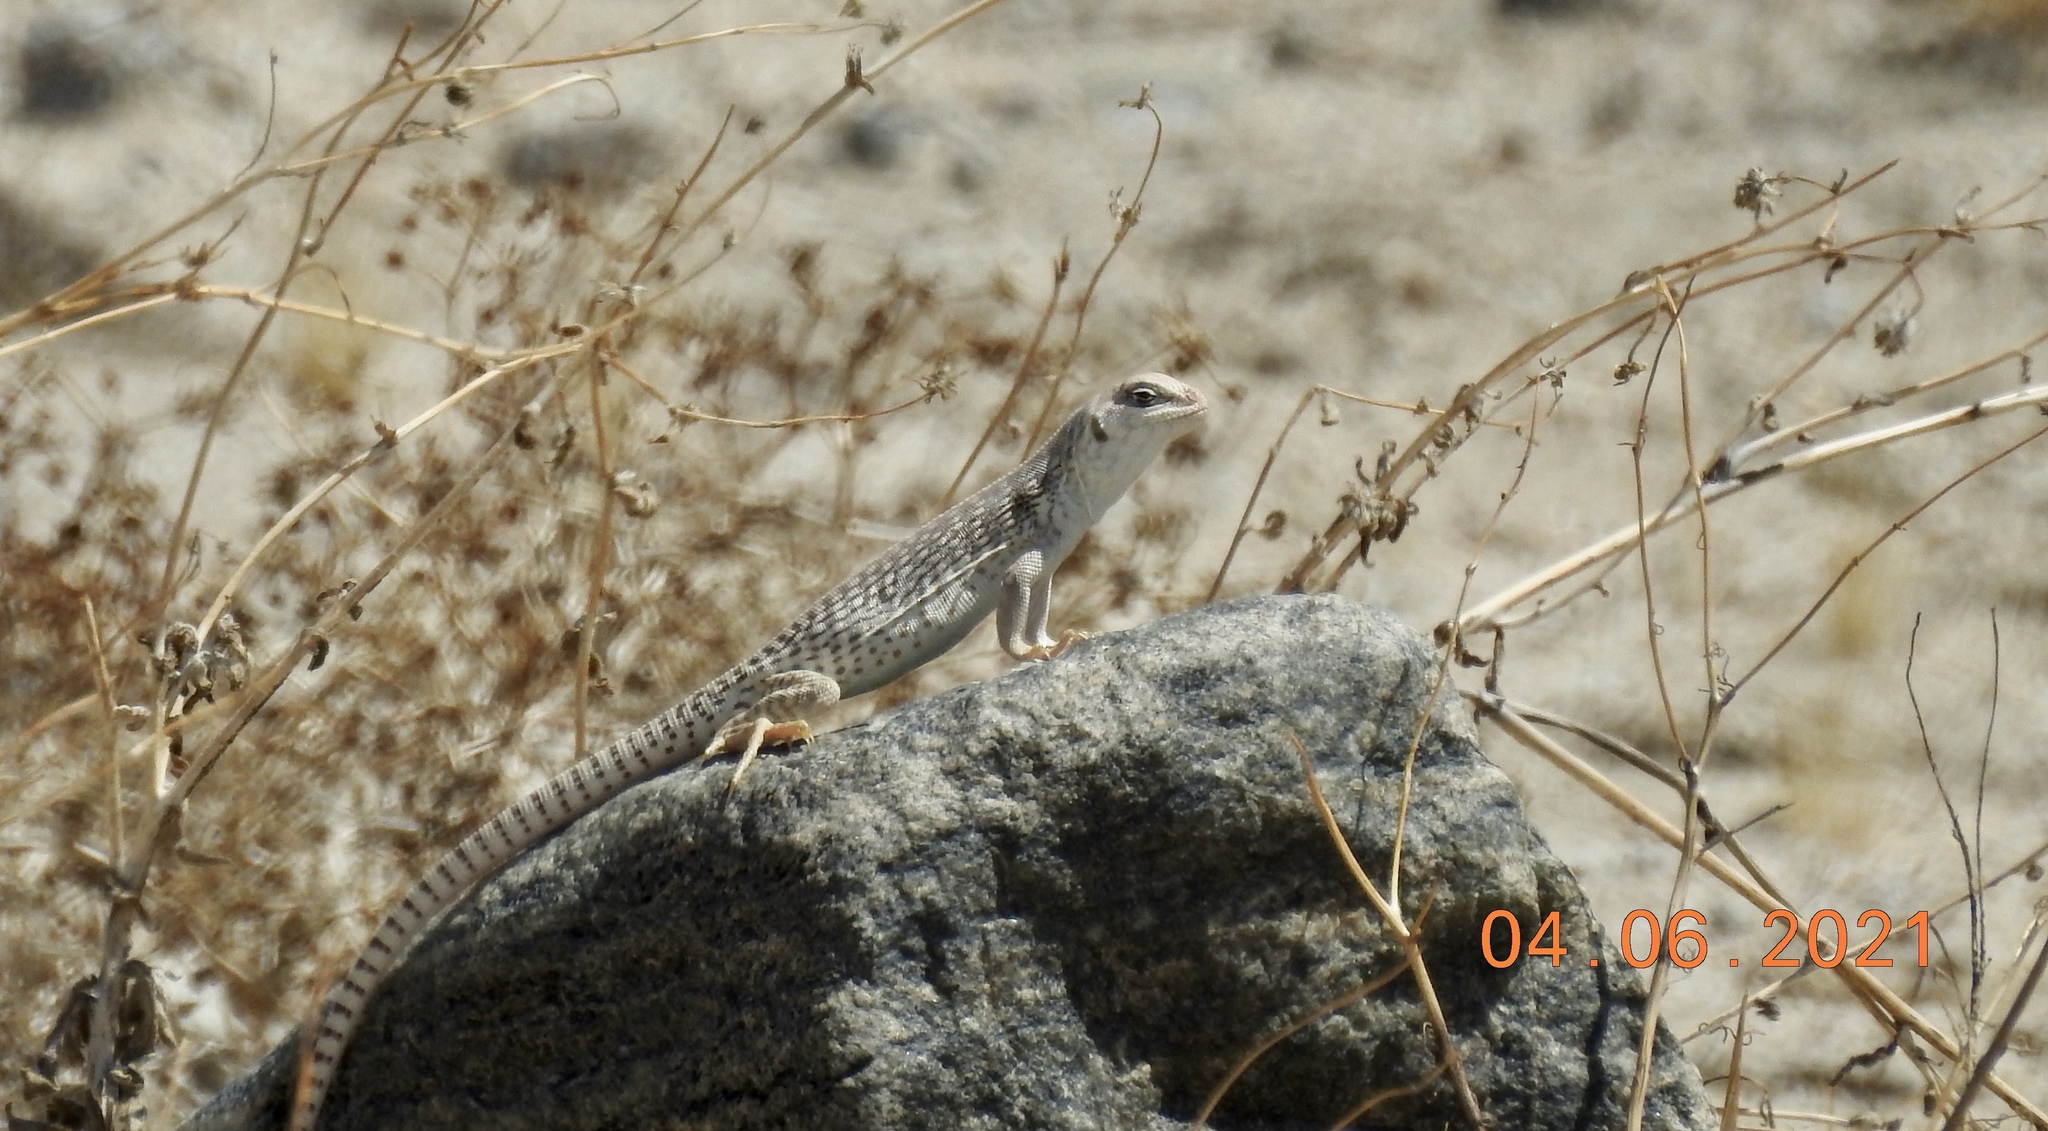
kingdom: Animalia
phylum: Chordata
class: Squamata
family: Iguanidae
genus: Dipsosaurus
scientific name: Dipsosaurus dorsalis
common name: Desert iguana
